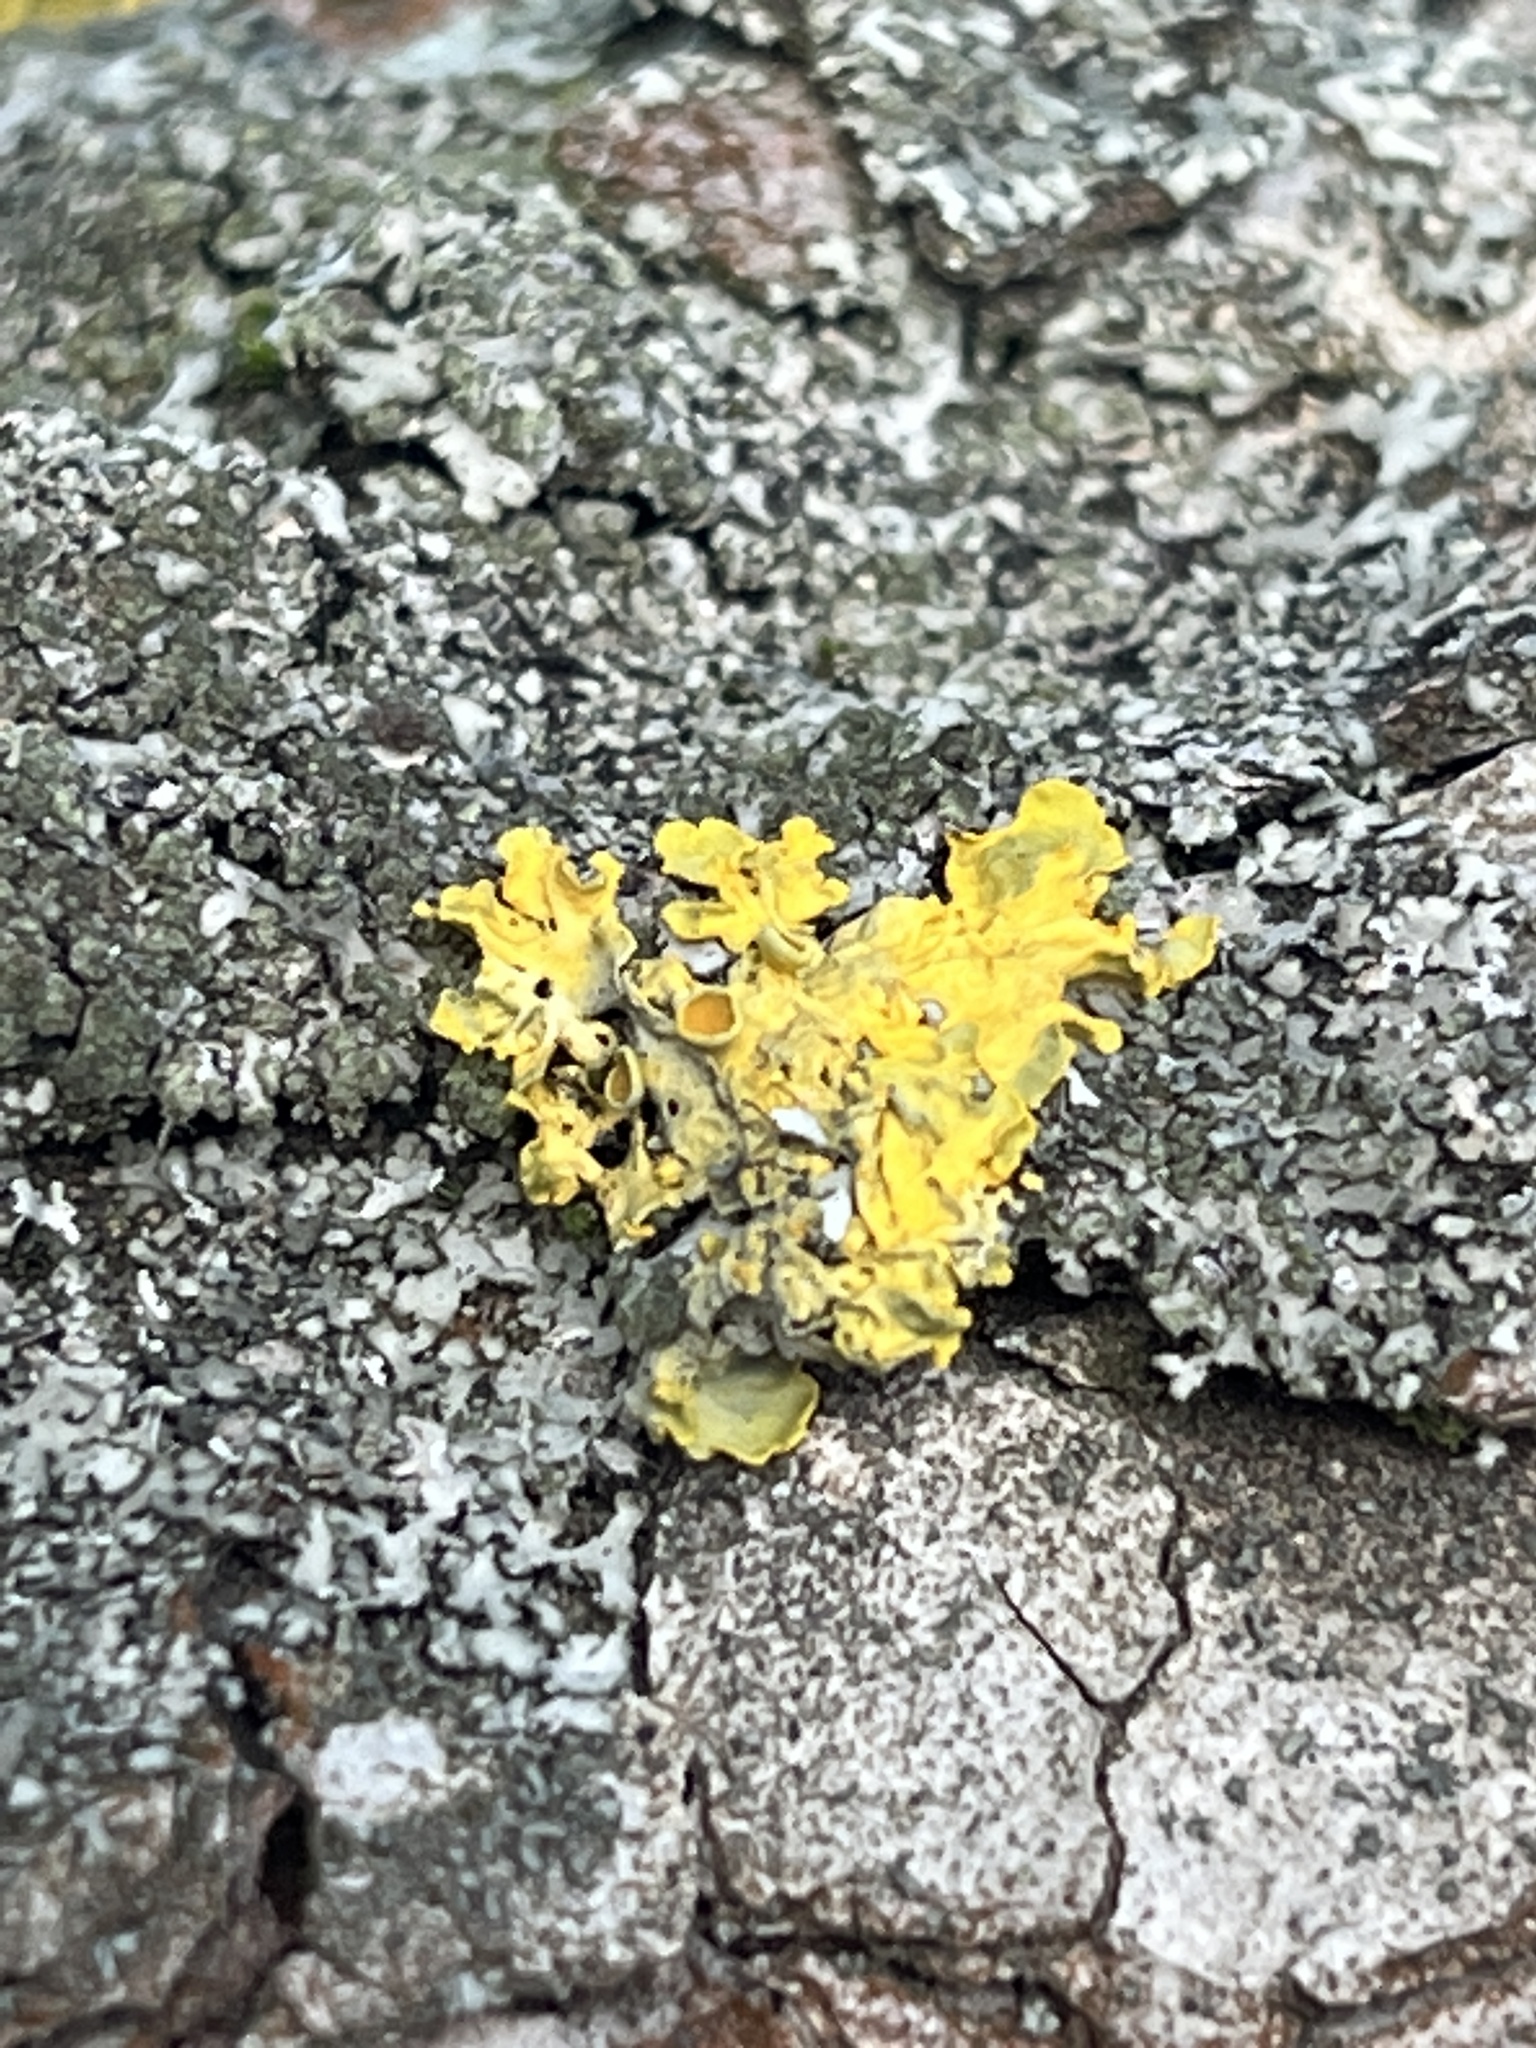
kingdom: Fungi
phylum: Ascomycota
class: Lecanoromycetes
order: Teloschistales
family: Teloschistaceae
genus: Xanthoria
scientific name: Xanthoria parietina
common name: Common orange lichen
